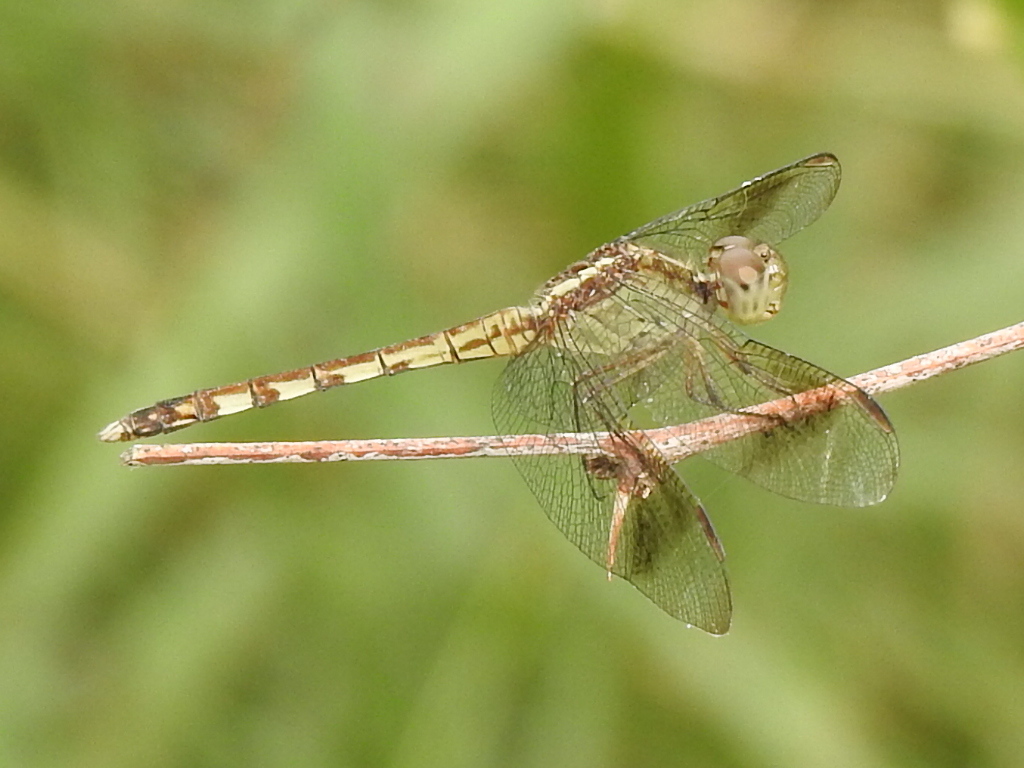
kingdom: Animalia
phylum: Arthropoda
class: Insecta
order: Odonata
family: Libellulidae
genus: Erythrodiplax
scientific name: Erythrodiplax umbrata
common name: Band-winged dragonlet
